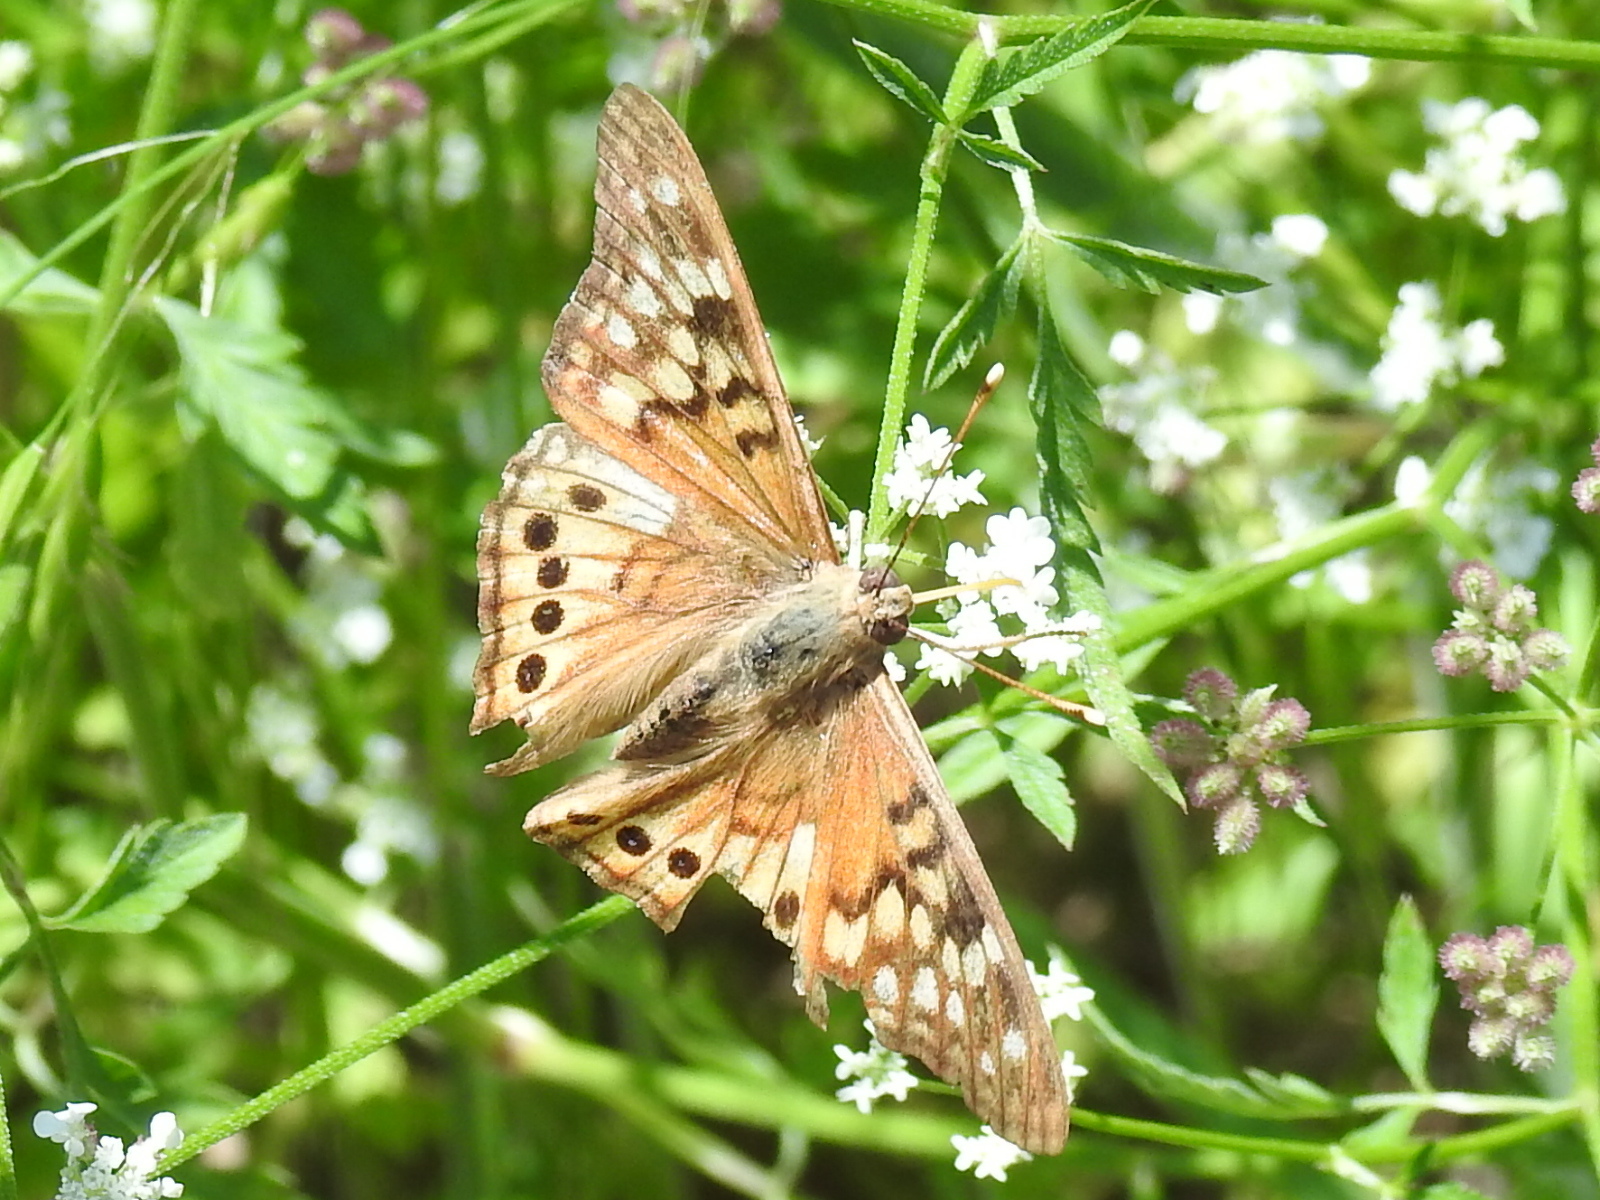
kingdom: Animalia
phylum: Arthropoda
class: Insecta
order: Lepidoptera
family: Nymphalidae
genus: Asterocampa
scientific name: Asterocampa celtis
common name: Hackberry emperor
